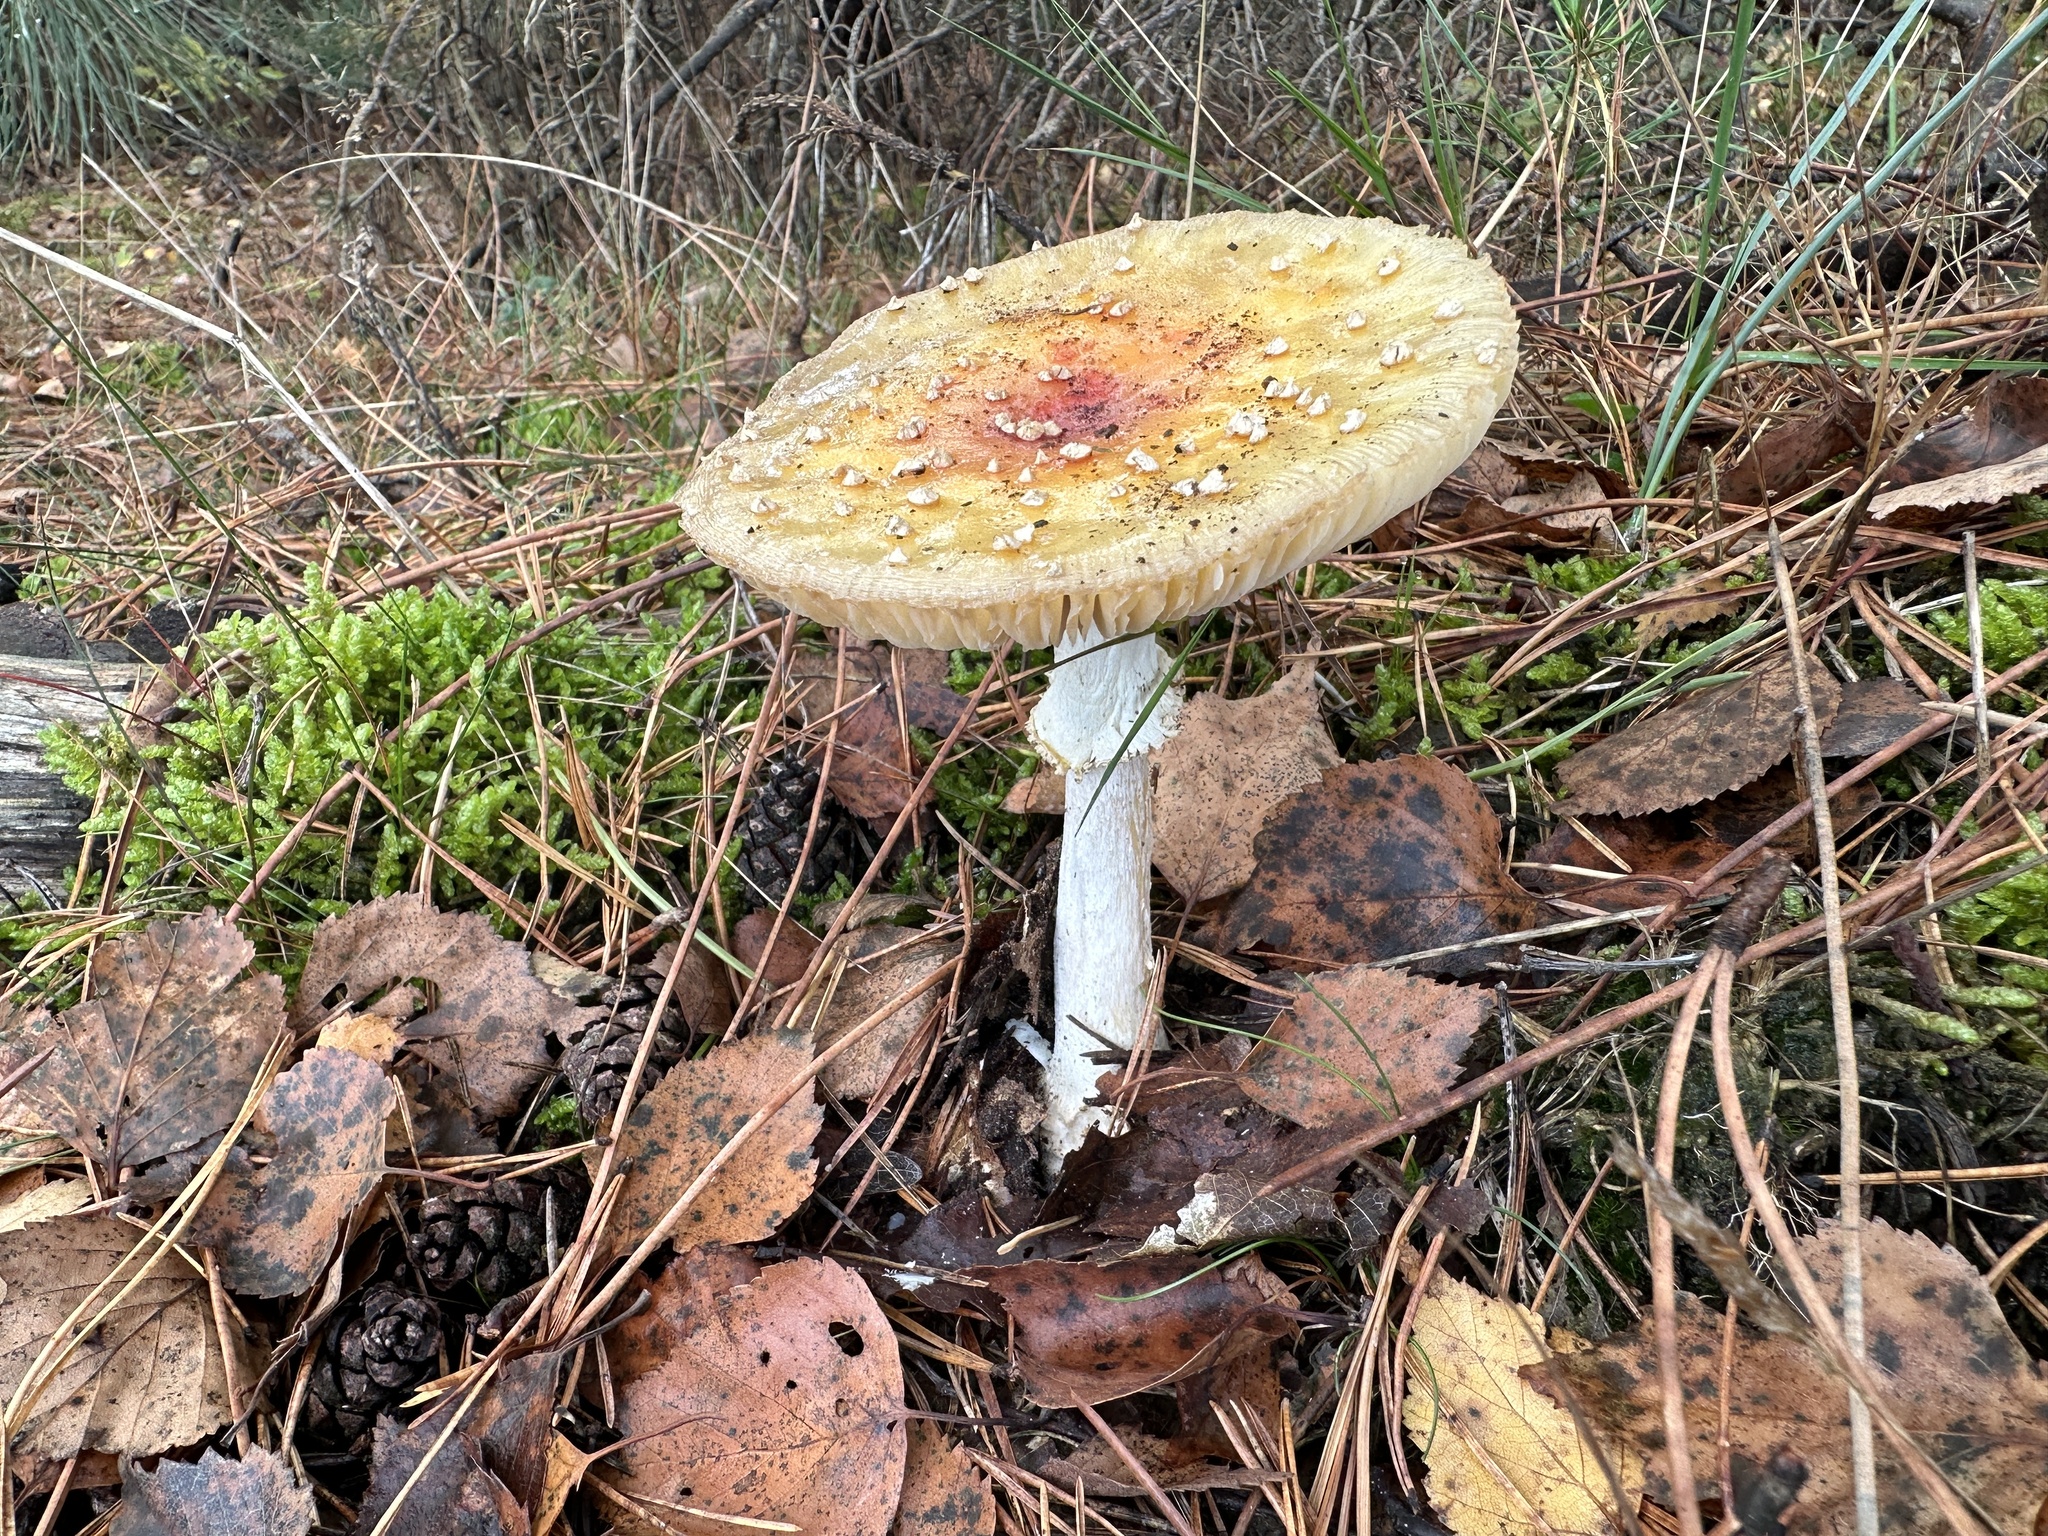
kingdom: Fungi
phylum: Basidiomycota
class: Agaricomycetes
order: Agaricales
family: Amanitaceae
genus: Amanita
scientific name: Amanita muscaria
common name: Fly agaric
